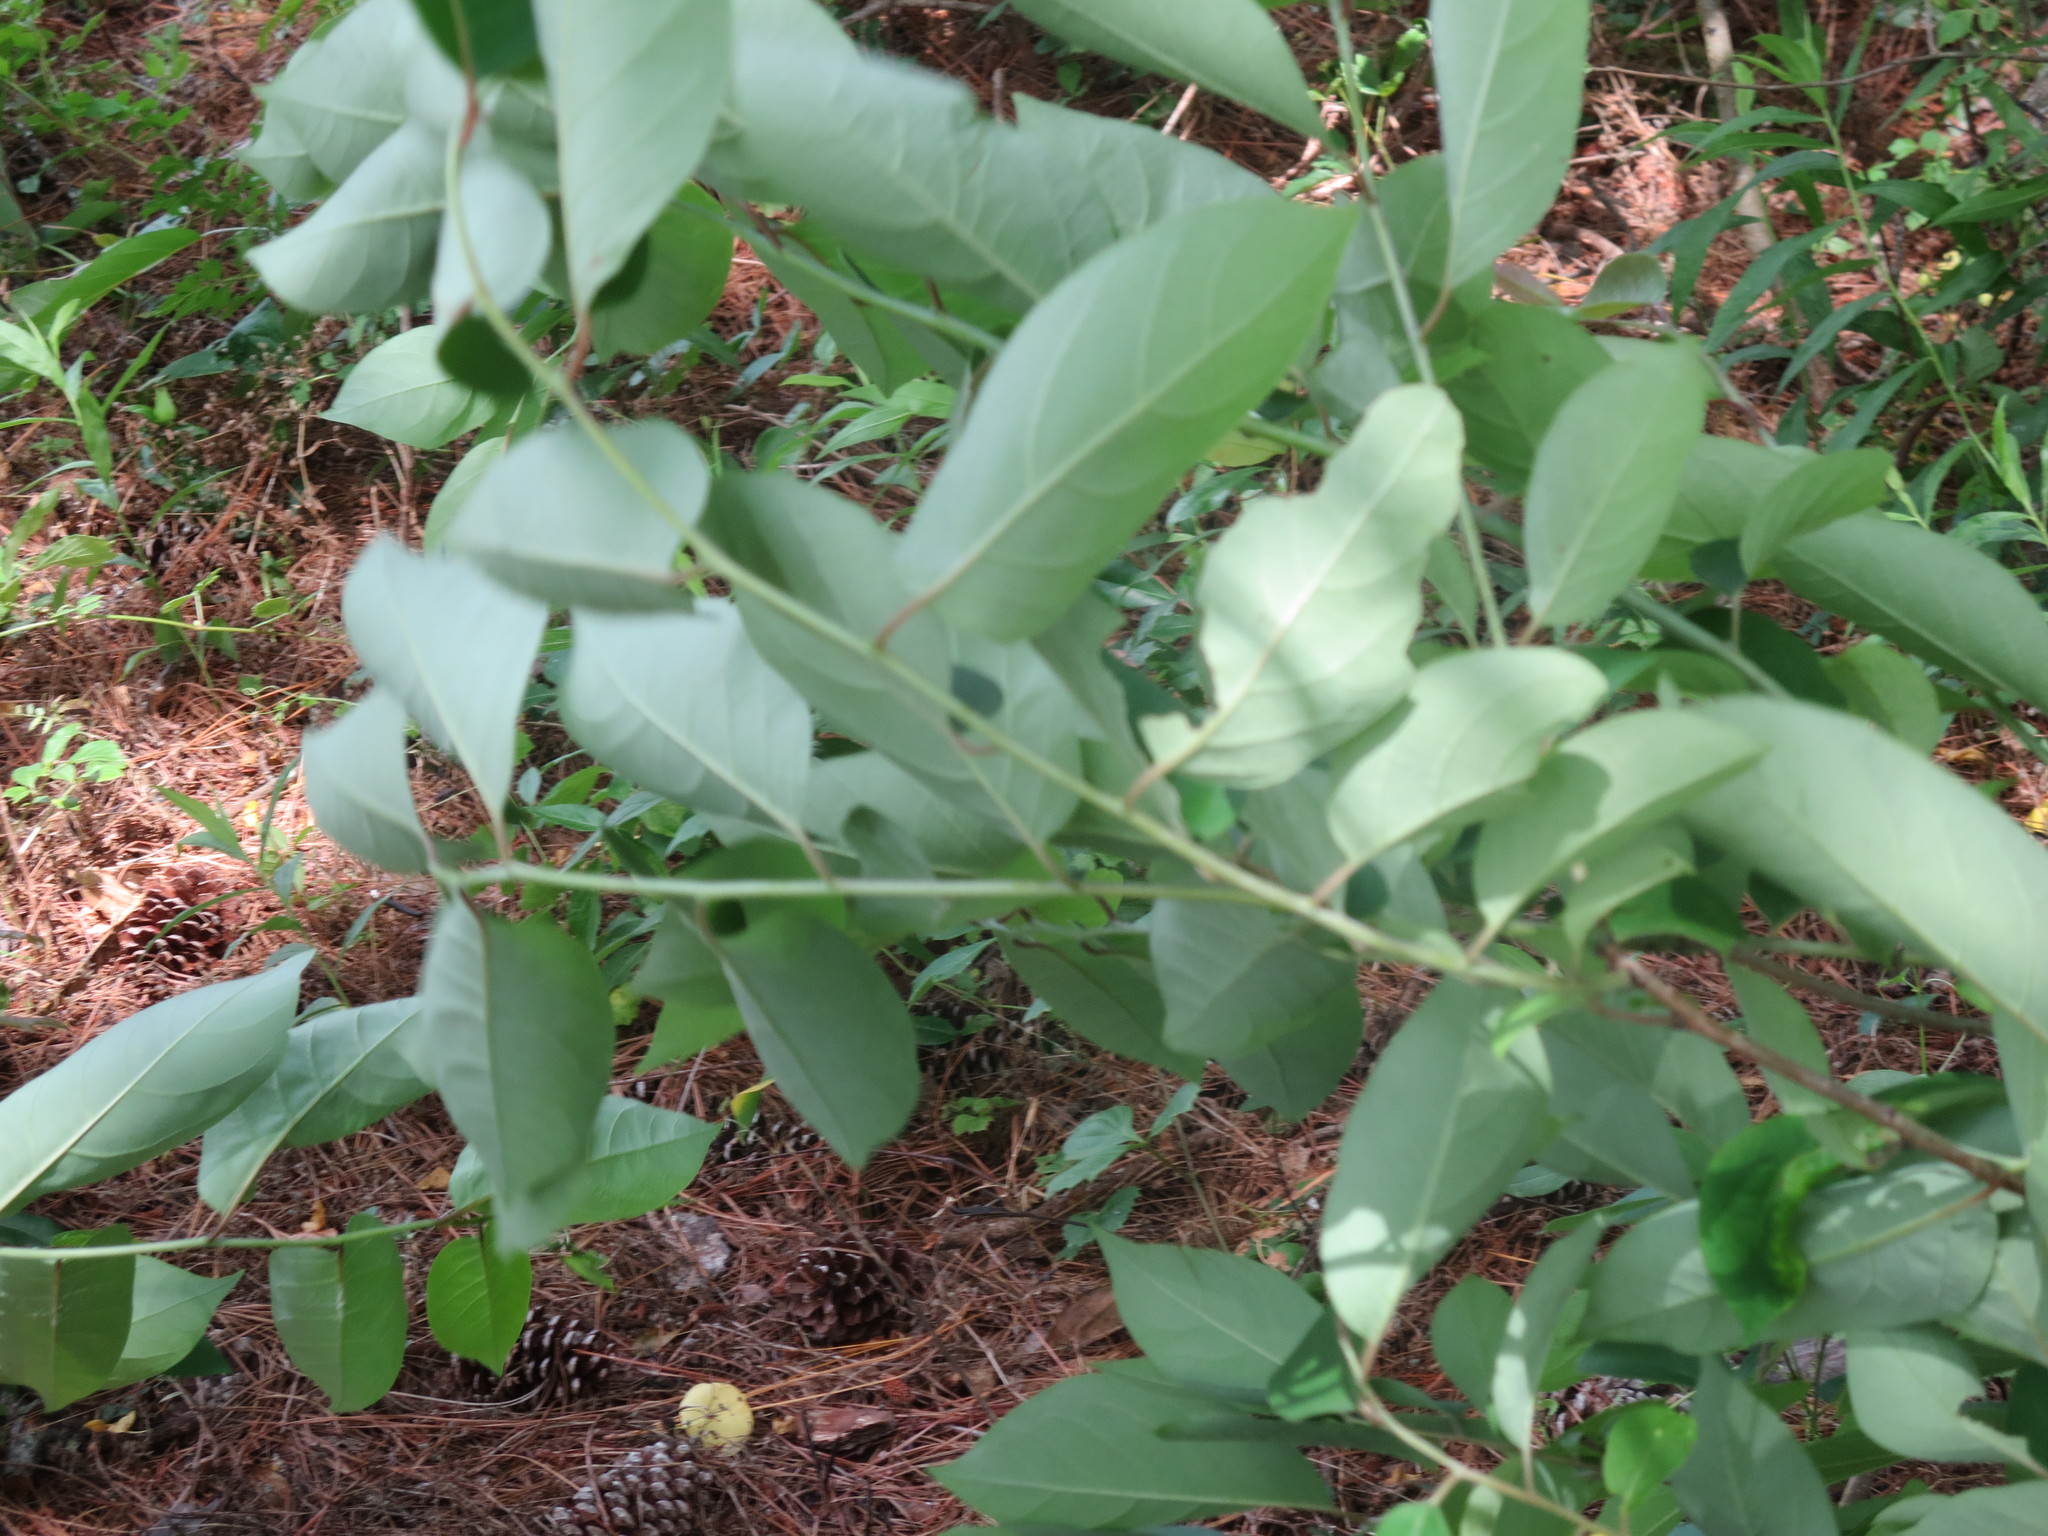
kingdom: Plantae
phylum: Tracheophyta
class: Magnoliopsida
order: Ericales
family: Ebenaceae
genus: Diospyros
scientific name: Diospyros virginiana
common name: Persimmon
